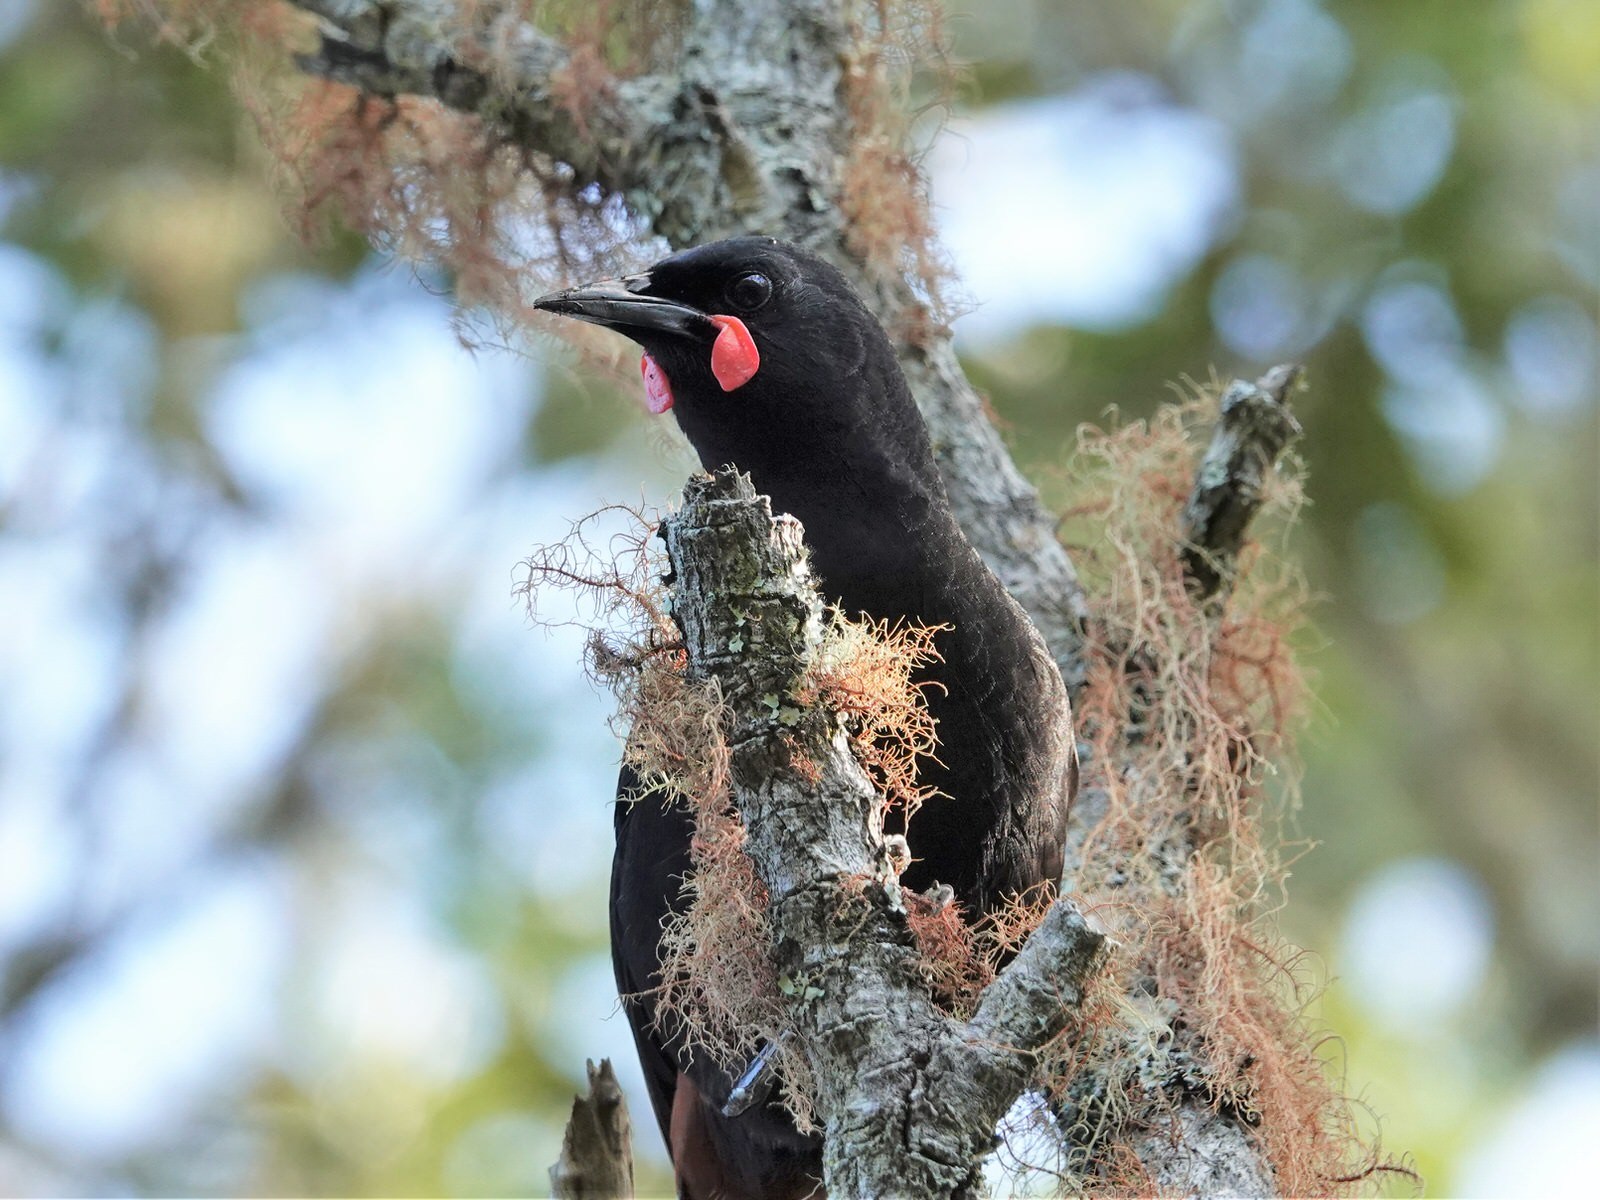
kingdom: Animalia
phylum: Chordata
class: Aves
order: Passeriformes
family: Callaeatidae
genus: Philesturnus
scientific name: Philesturnus carunculatus
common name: South island saddleback
